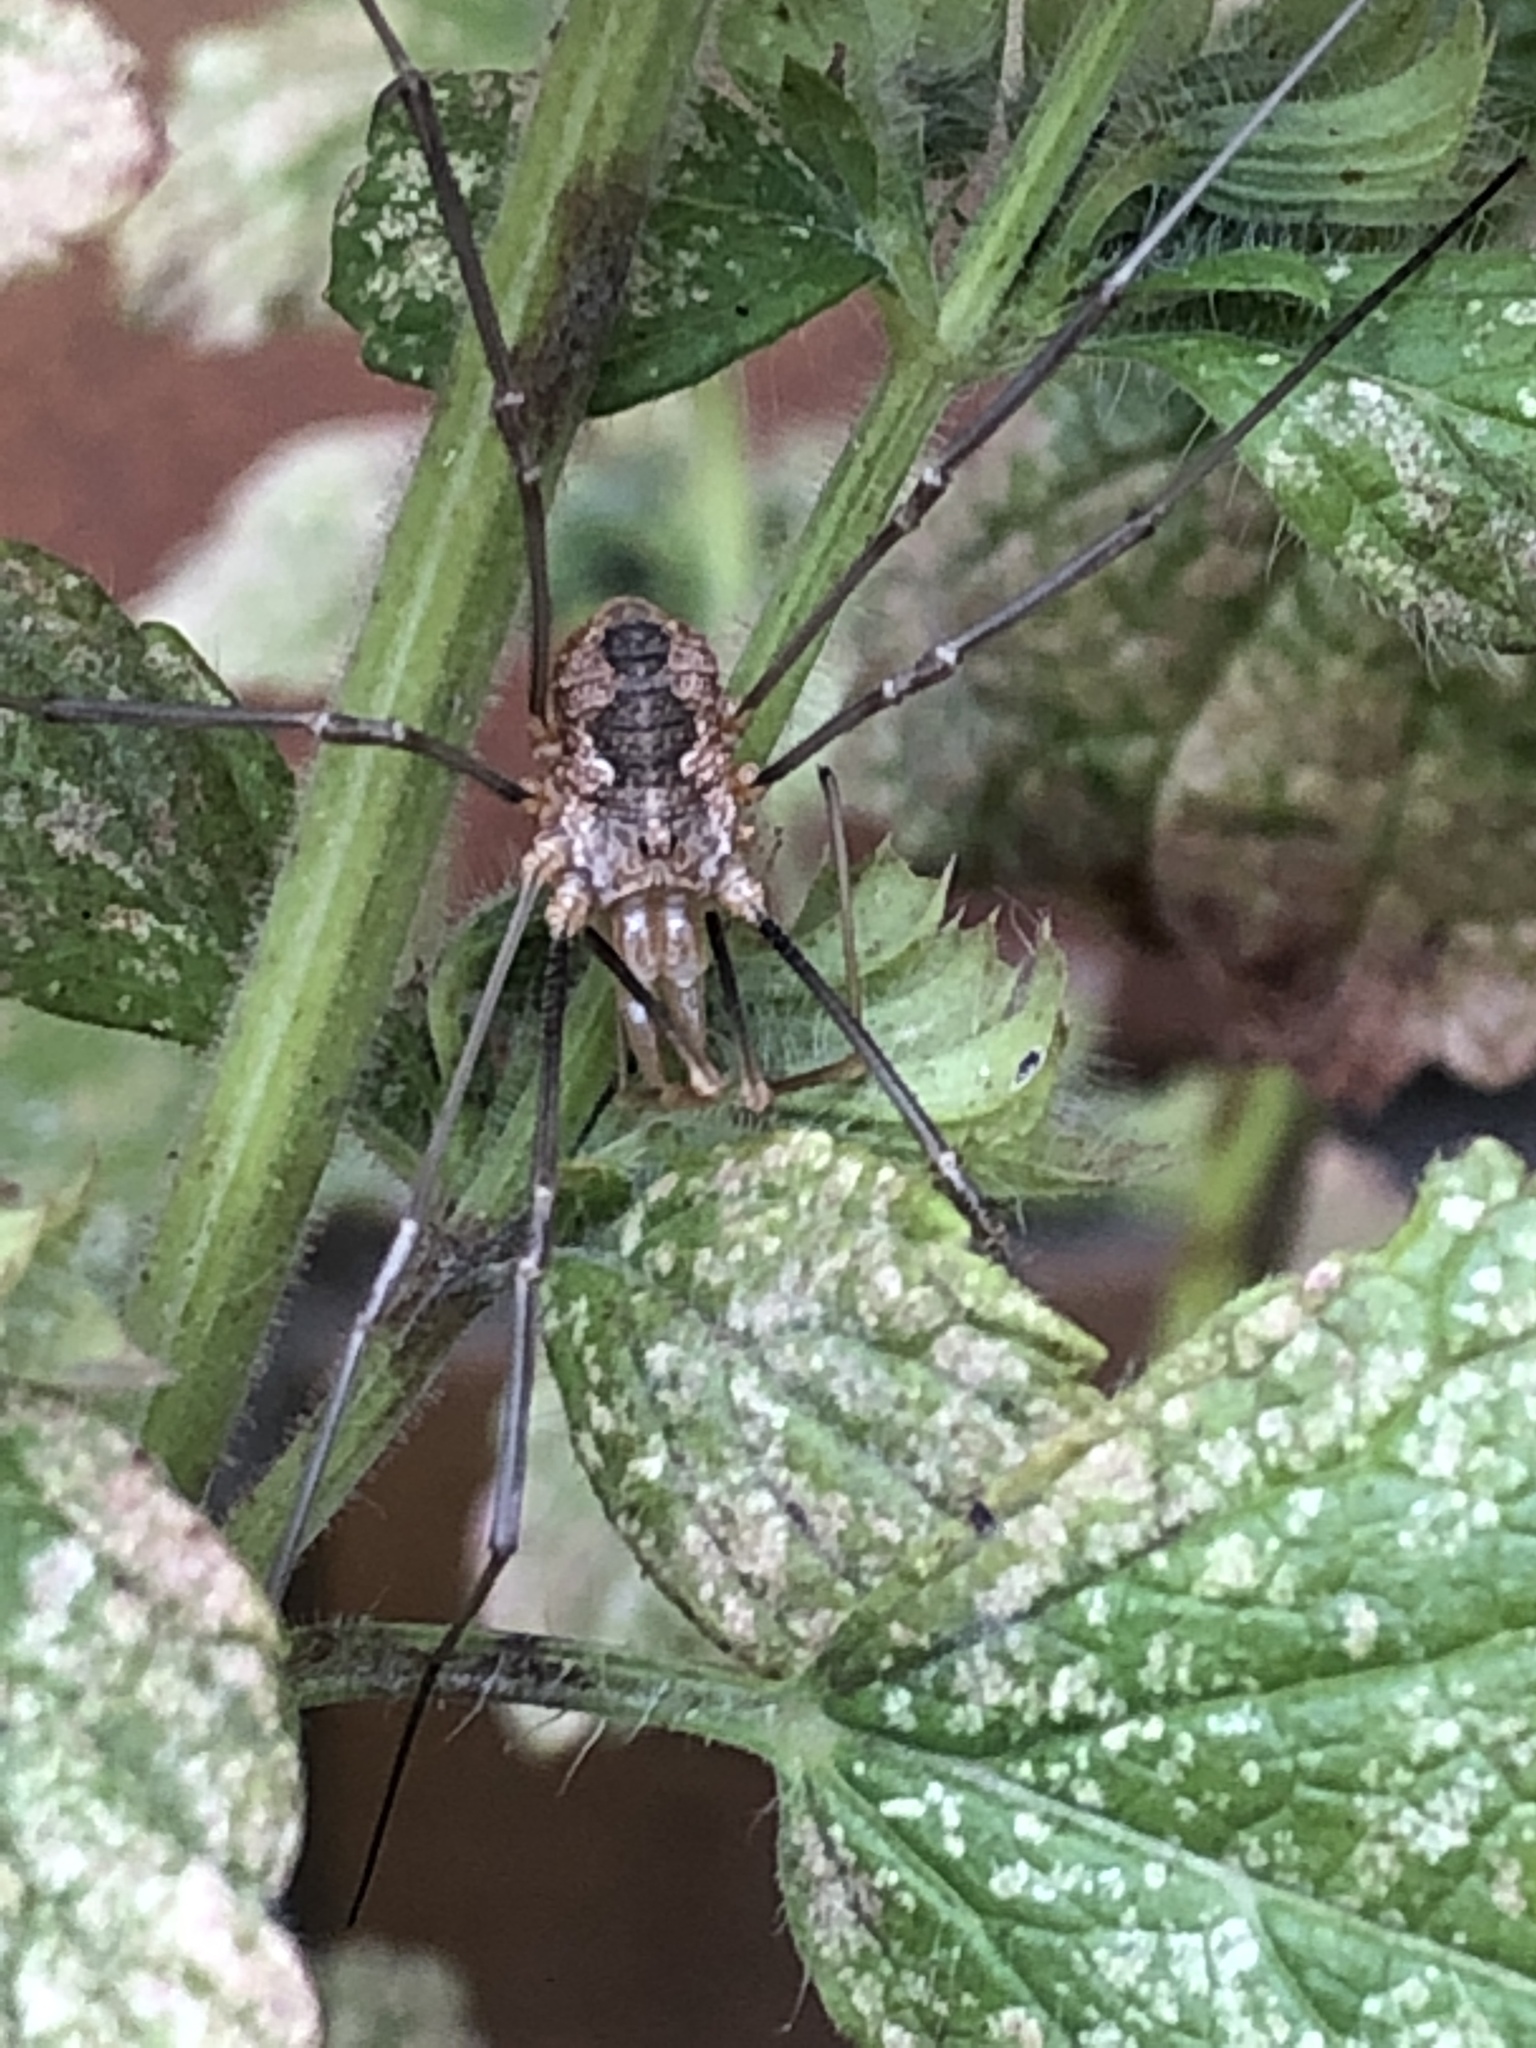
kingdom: Animalia
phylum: Arthropoda
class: Arachnida
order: Opiliones
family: Phalangiidae
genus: Phalangium
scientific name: Phalangium opilio
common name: Daddy longleg
